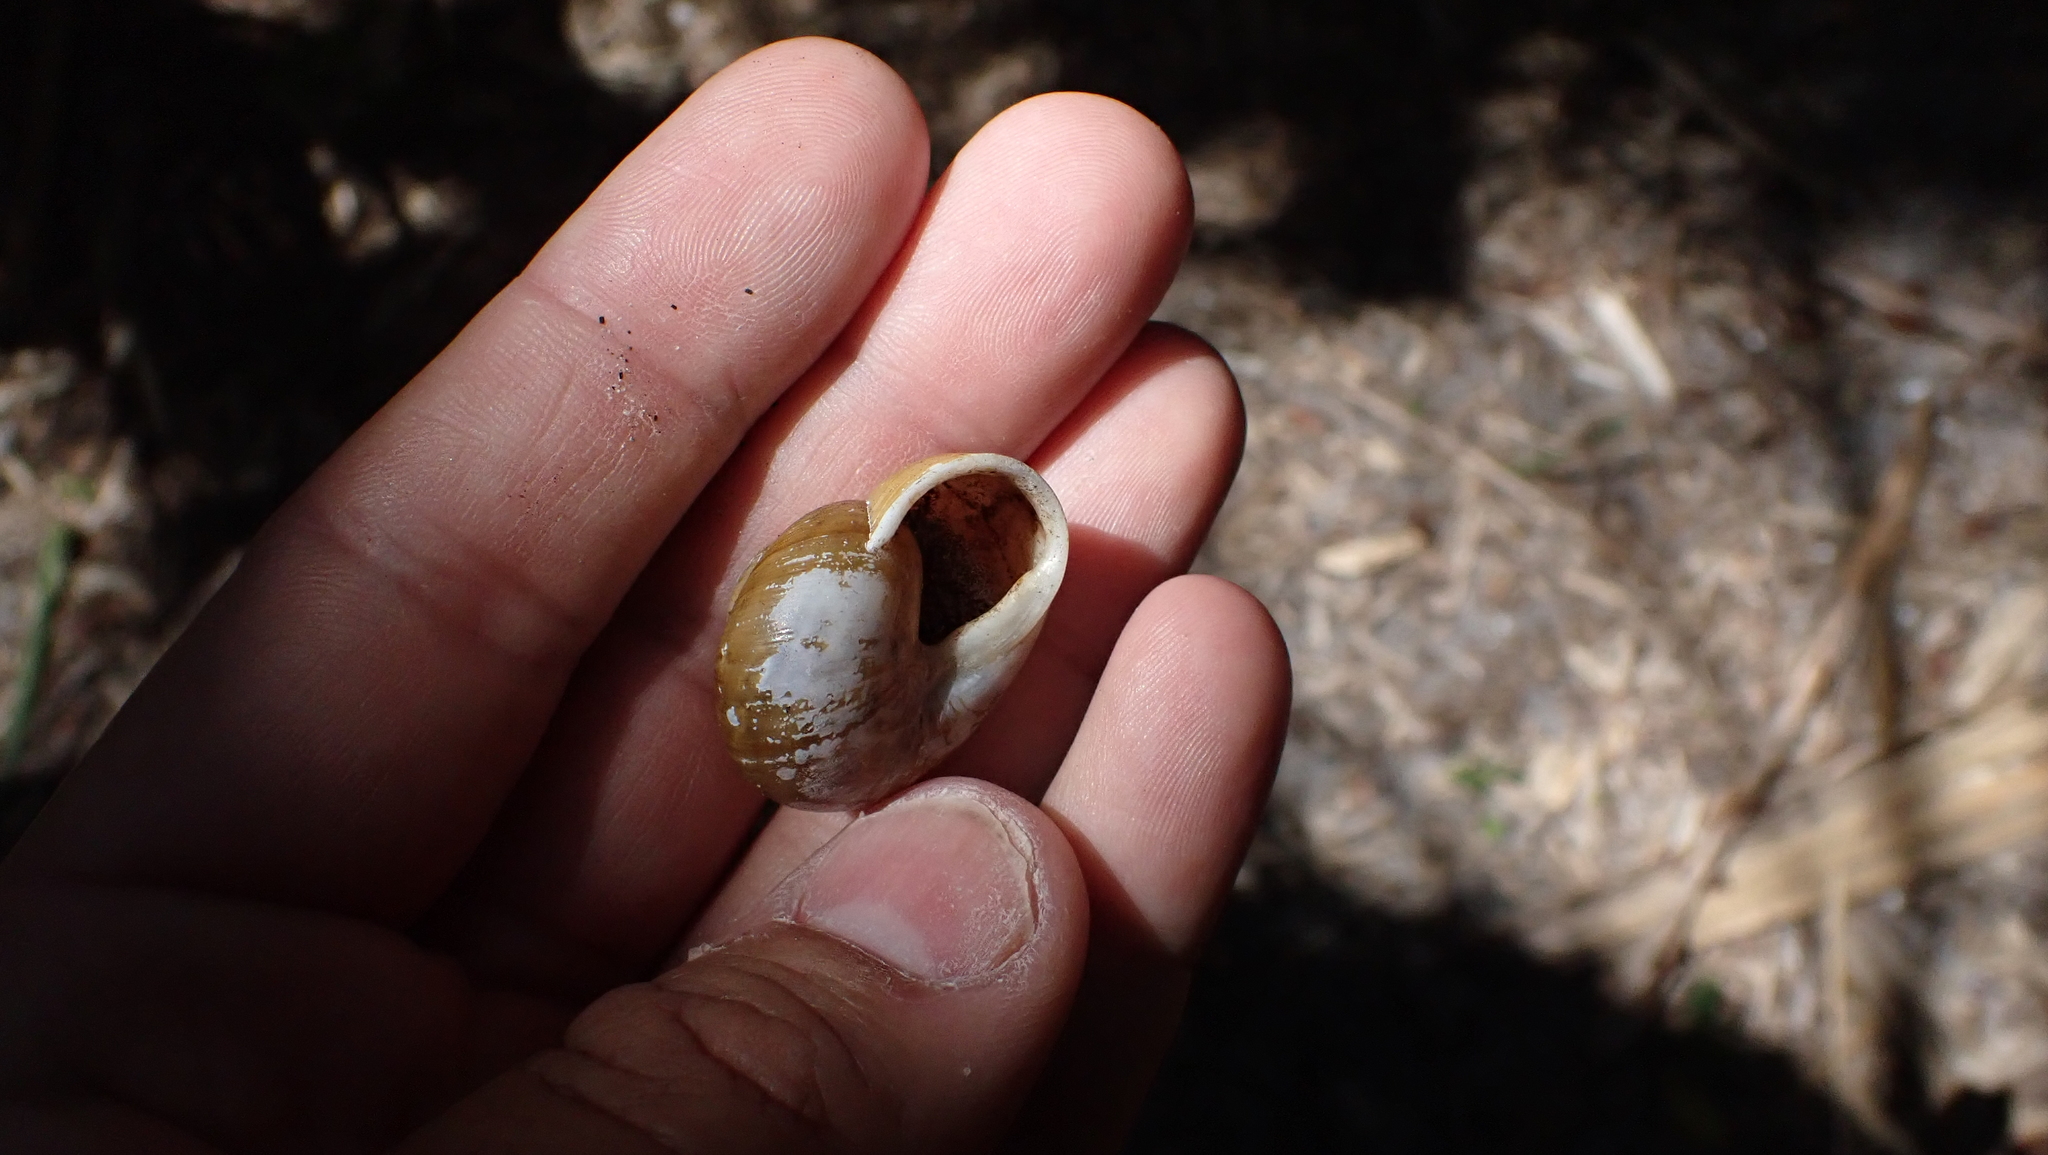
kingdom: Animalia
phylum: Mollusca
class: Gastropoda
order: Stylommatophora
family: Zachrysiidae
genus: Zachrysia
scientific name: Zachrysia provisoria
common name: Garden zachrysia
